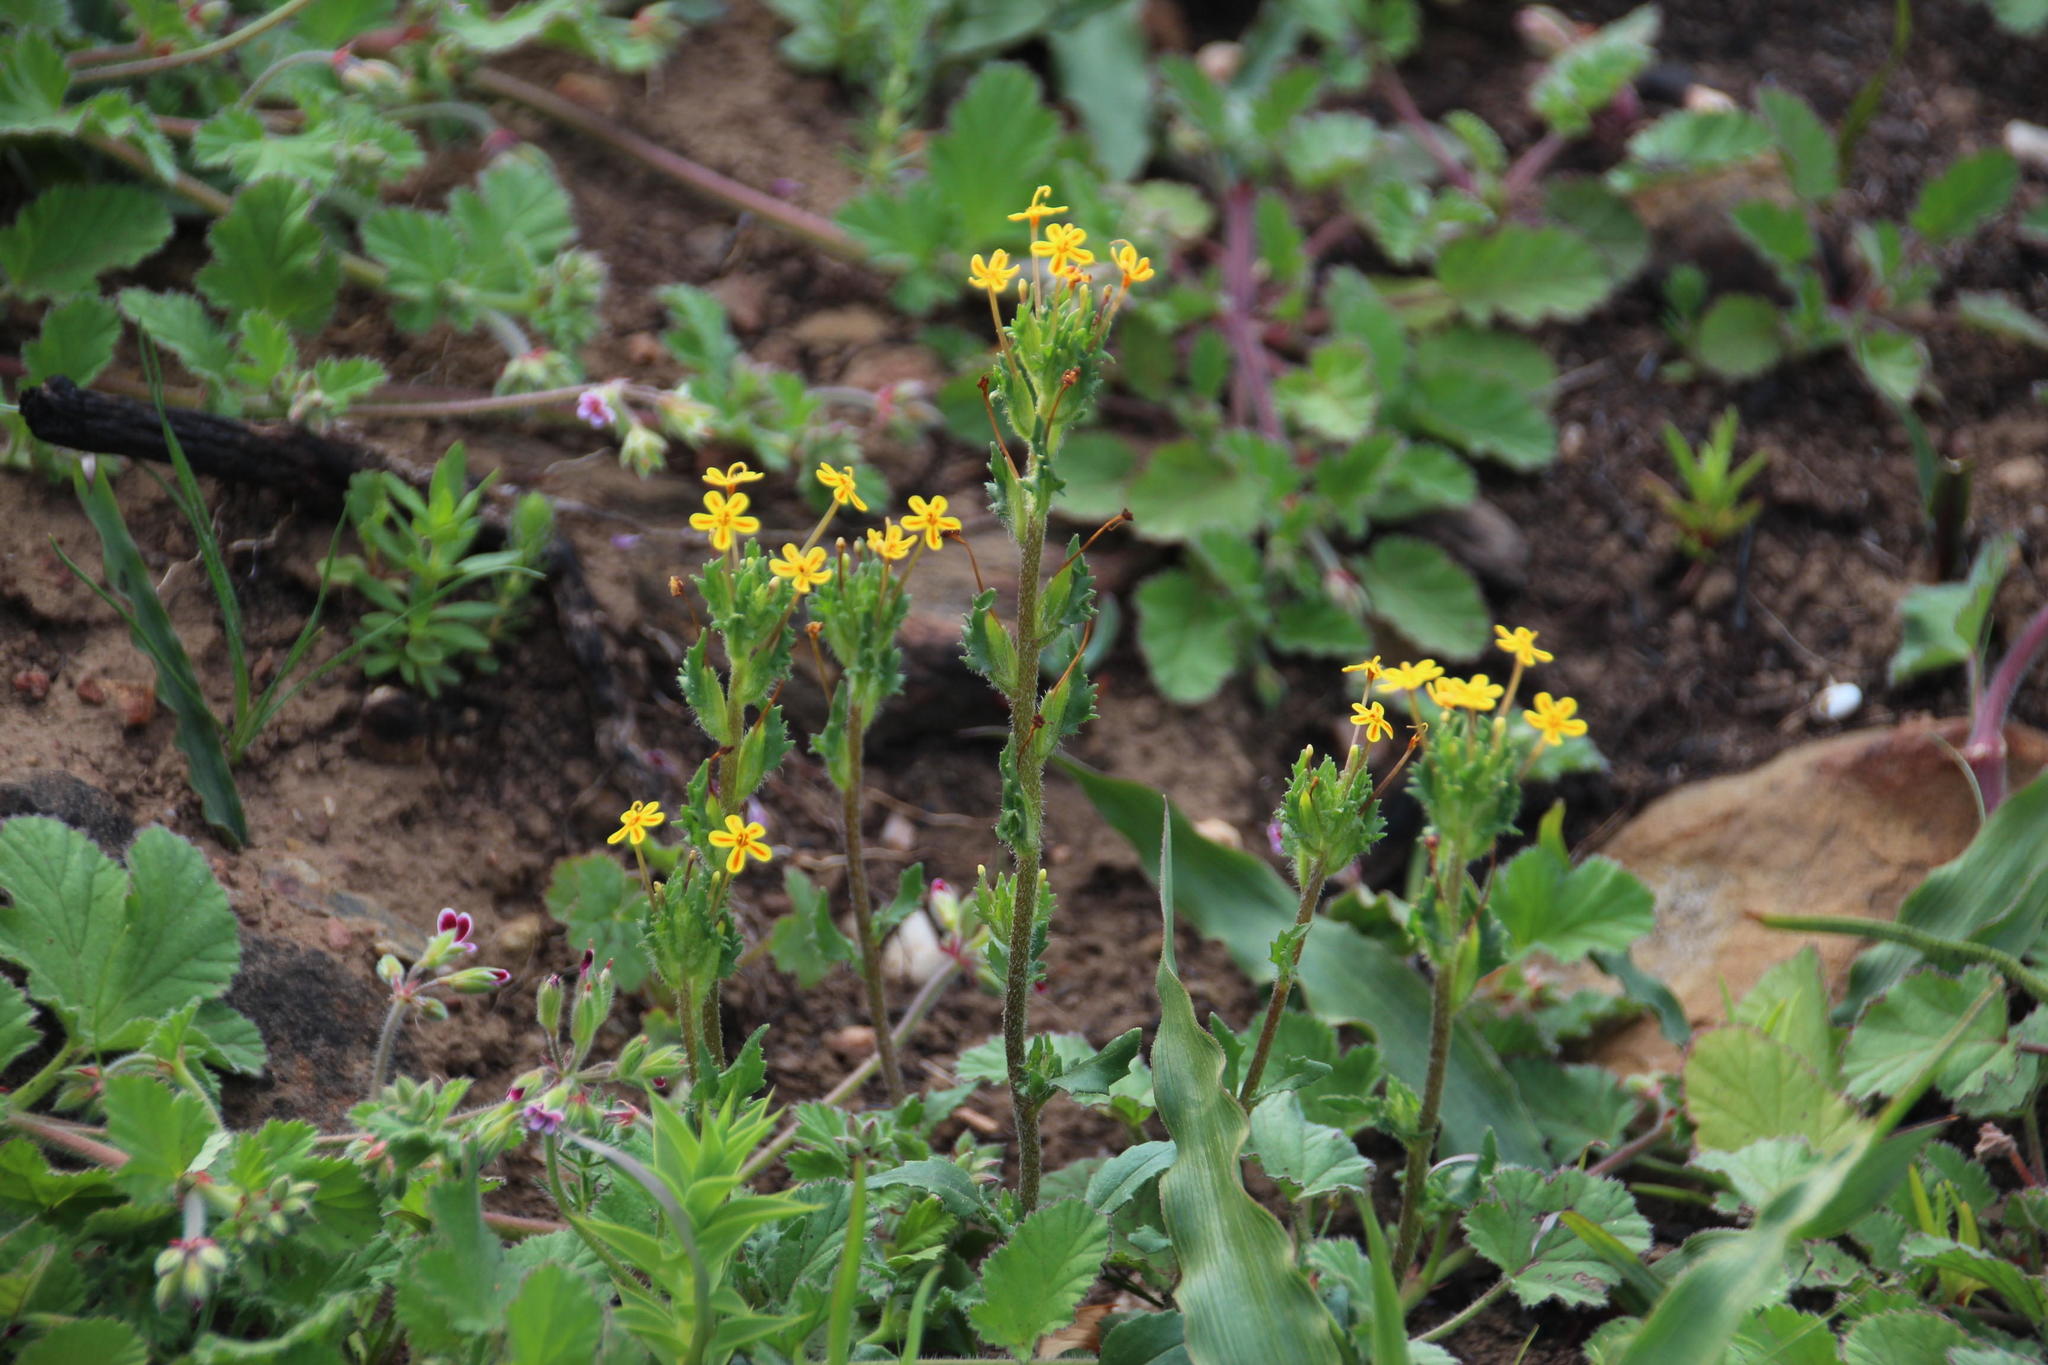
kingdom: Plantae
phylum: Tracheophyta
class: Magnoliopsida
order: Lamiales
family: Scrophulariaceae
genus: Zaluzianskya
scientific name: Zaluzianskya divaricata
